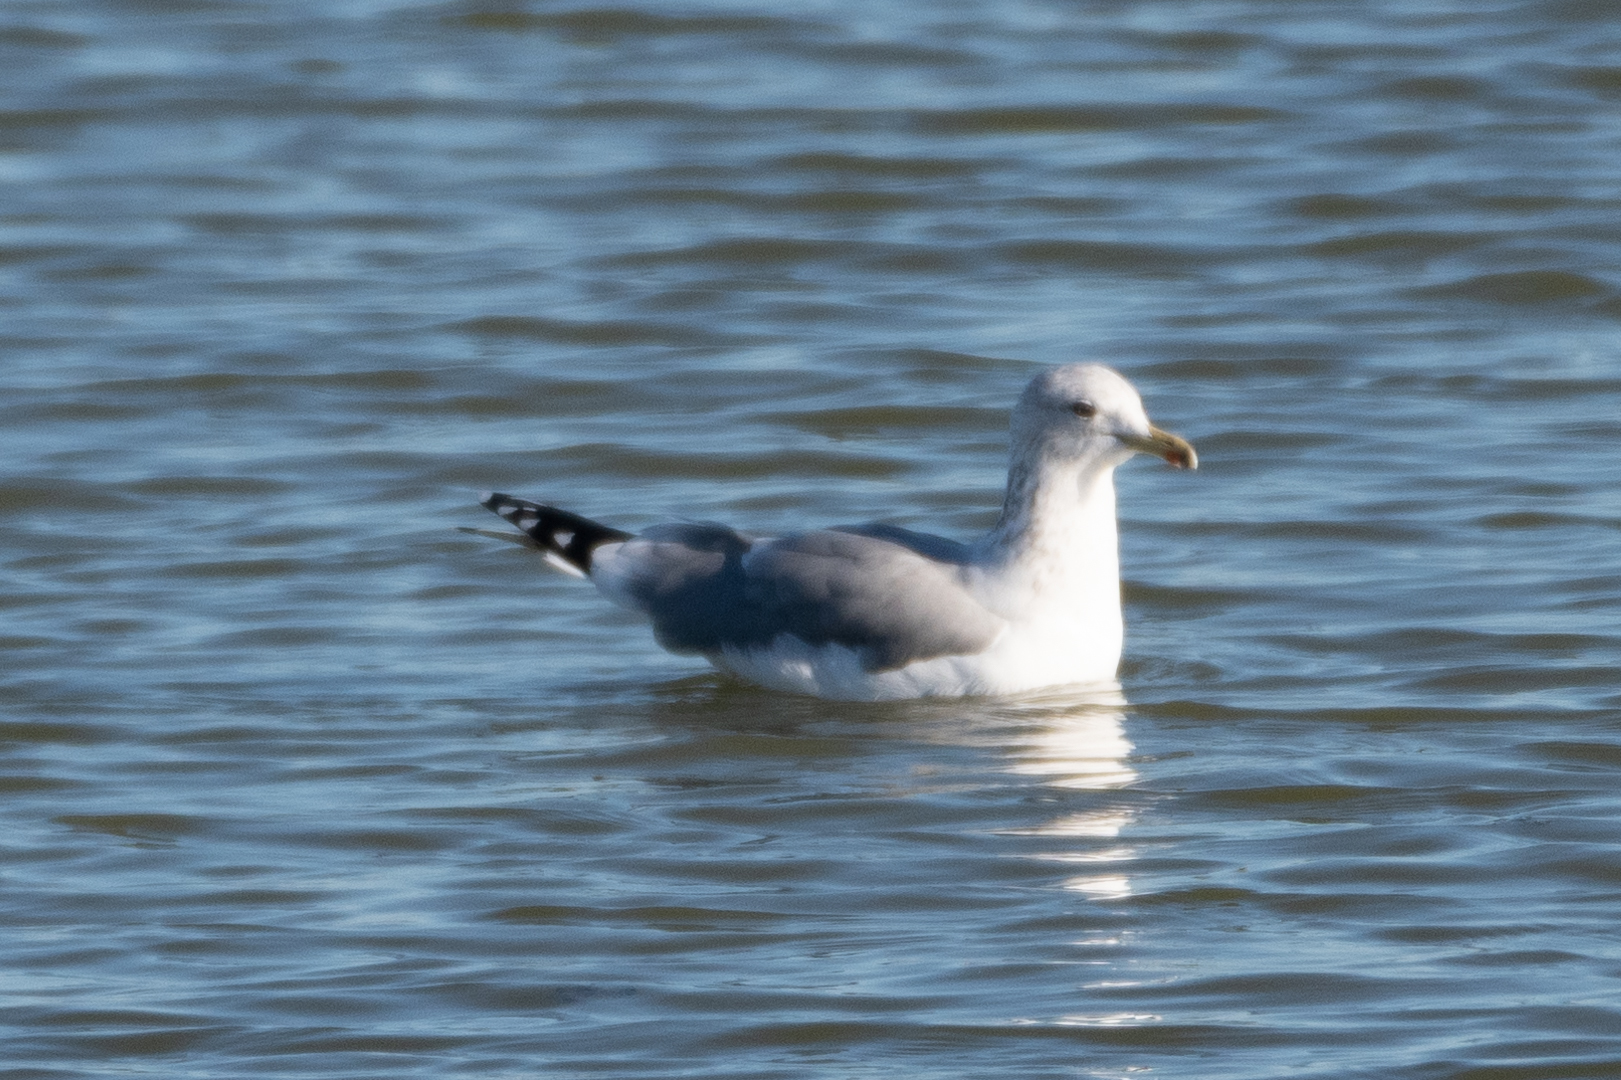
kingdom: Animalia
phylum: Chordata
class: Aves
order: Charadriiformes
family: Laridae
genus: Larus
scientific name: Larus californicus
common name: California gull
